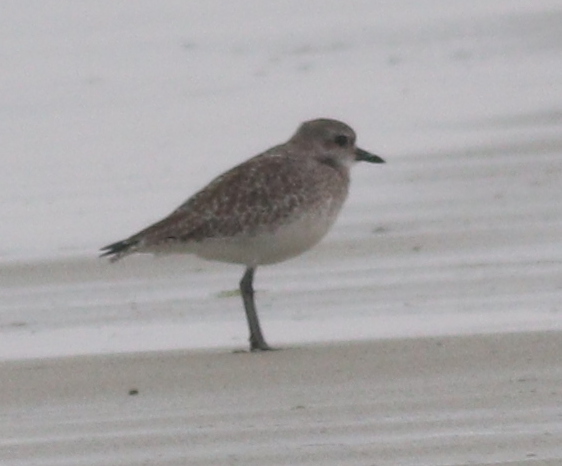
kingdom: Animalia
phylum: Chordata
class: Aves
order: Charadriiformes
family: Charadriidae
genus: Pluvialis
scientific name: Pluvialis squatarola
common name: Grey plover
